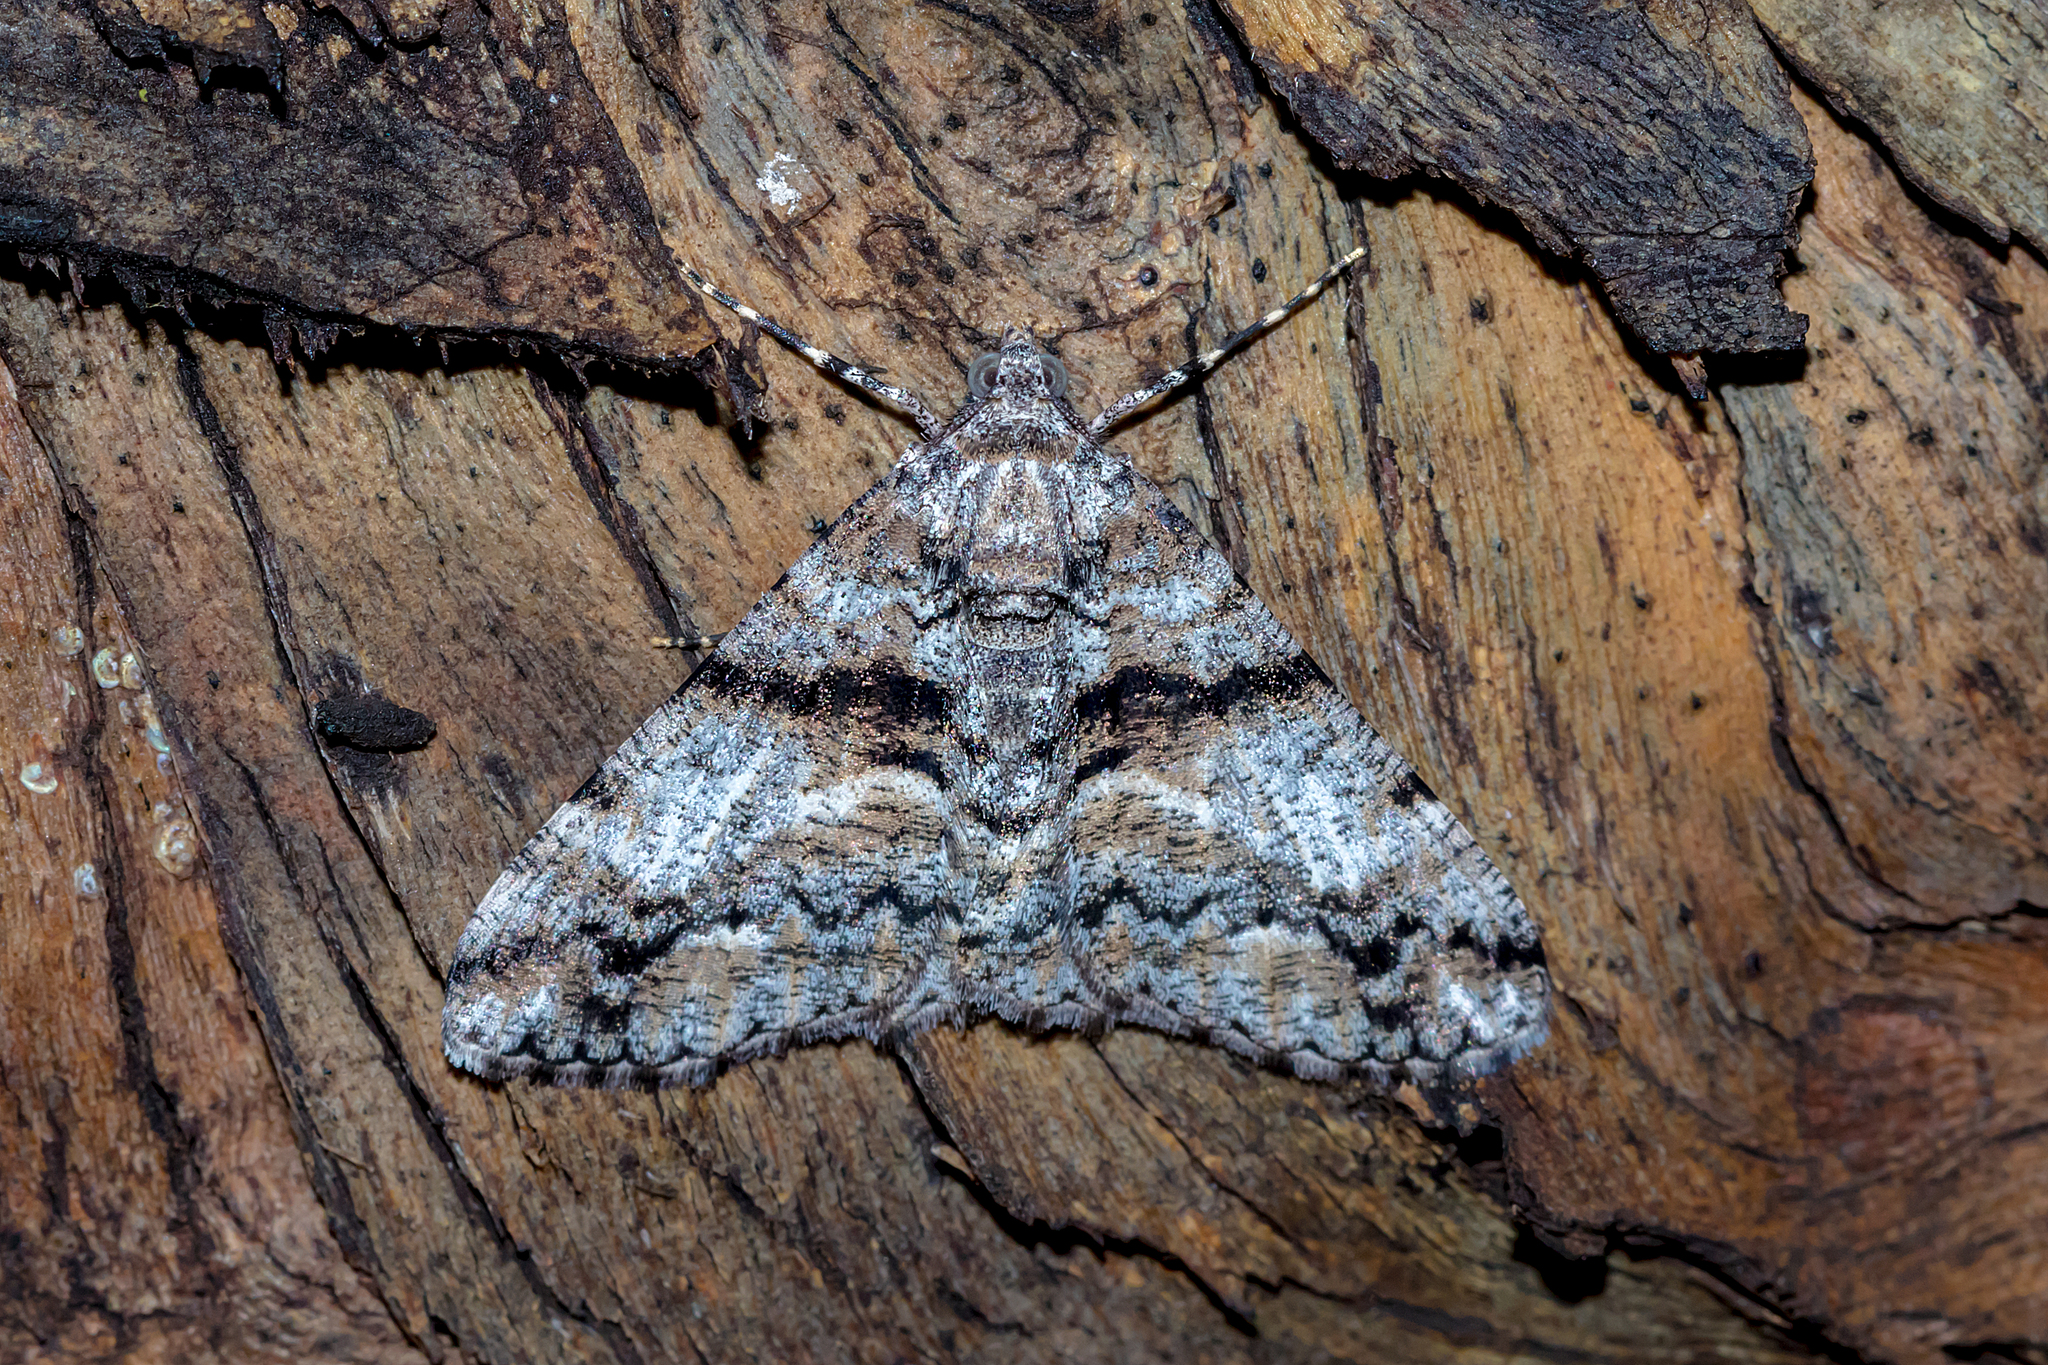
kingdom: Animalia
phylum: Arthropoda
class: Insecta
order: Lepidoptera
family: Geometridae
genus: Gastrinodes
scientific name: Gastrinodes argoplaca
